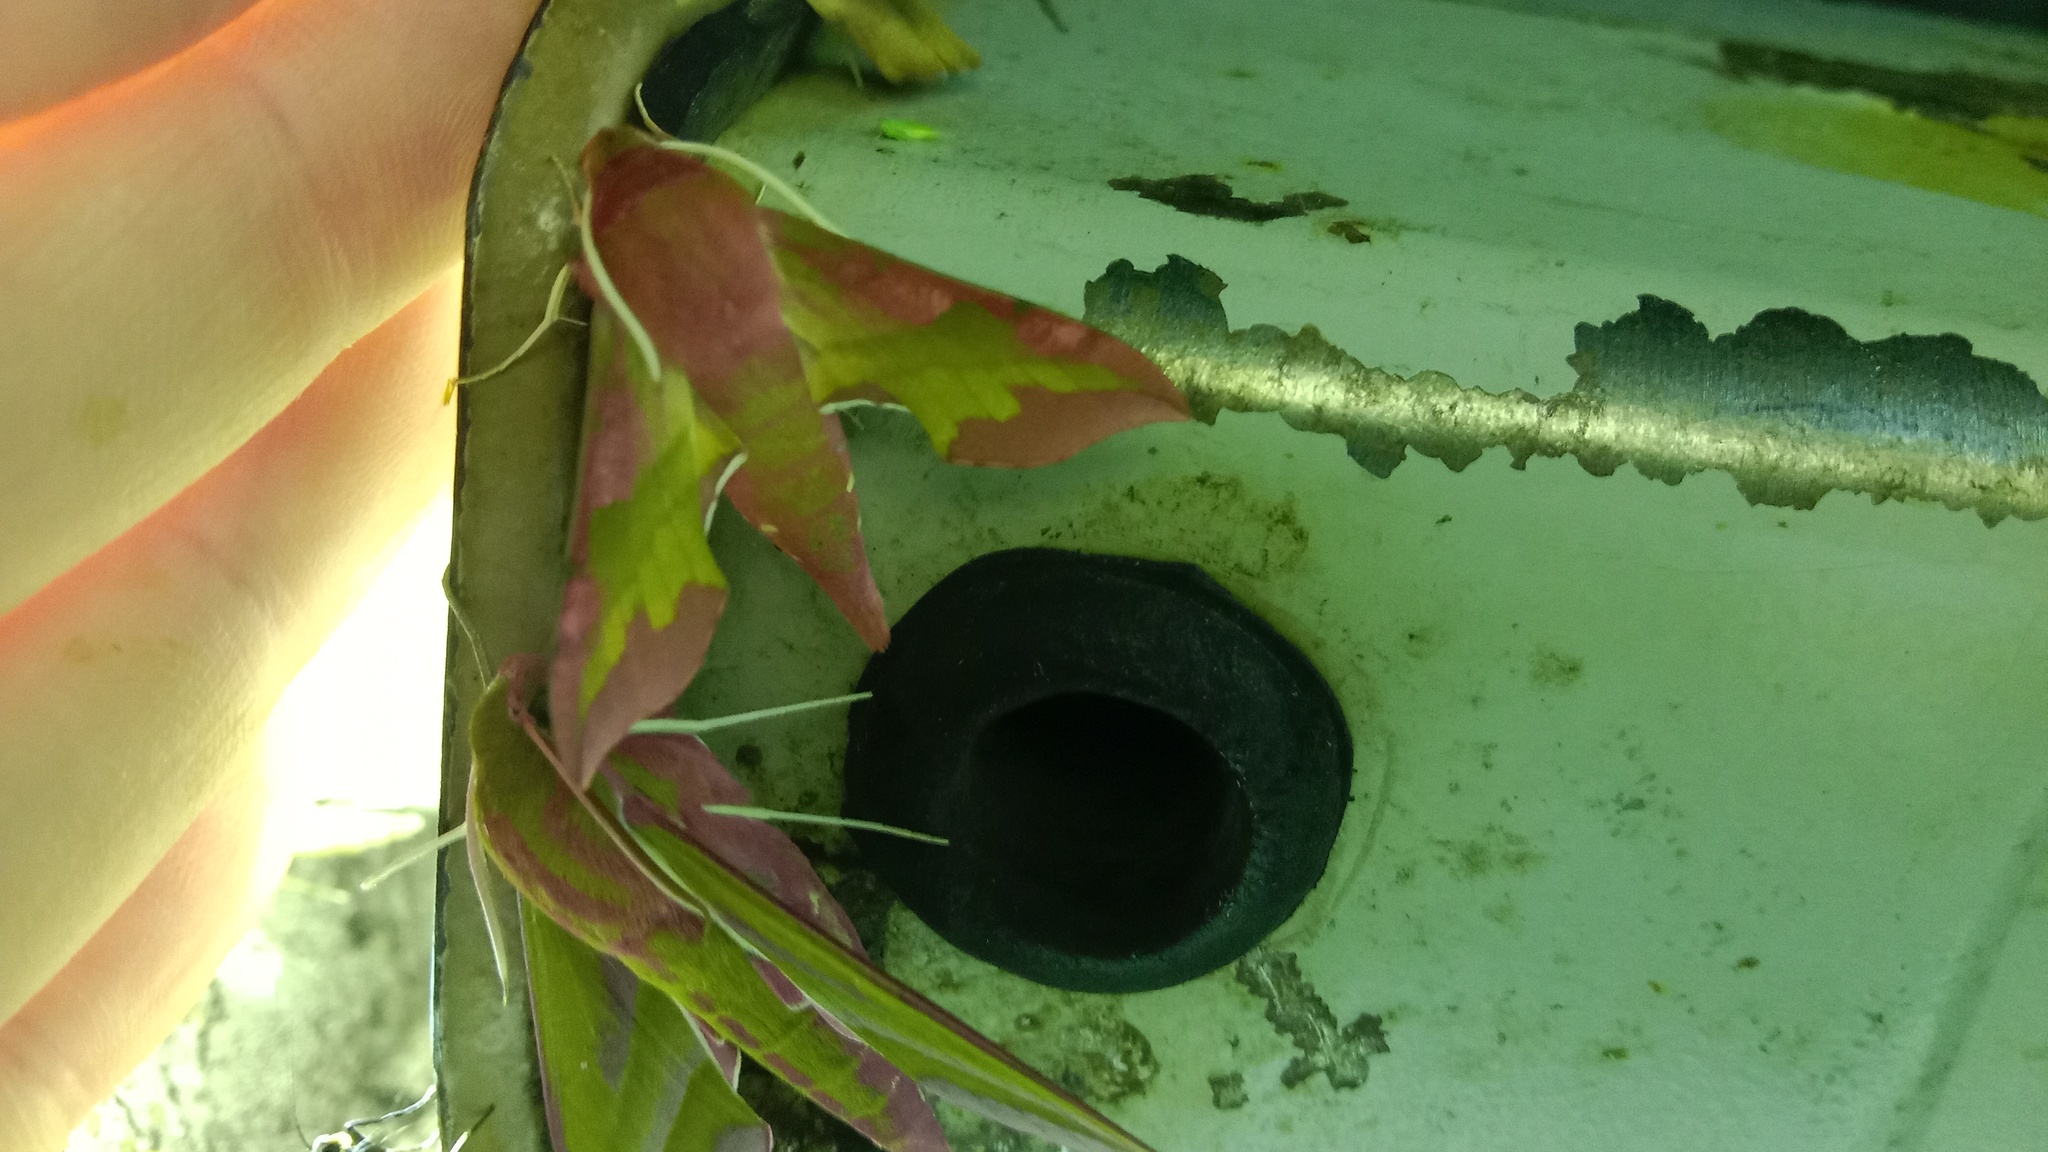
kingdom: Animalia
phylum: Arthropoda
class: Insecta
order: Lepidoptera
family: Sphingidae
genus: Deilephila
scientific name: Deilephila porcellus
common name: Small elephant hawk-moth
